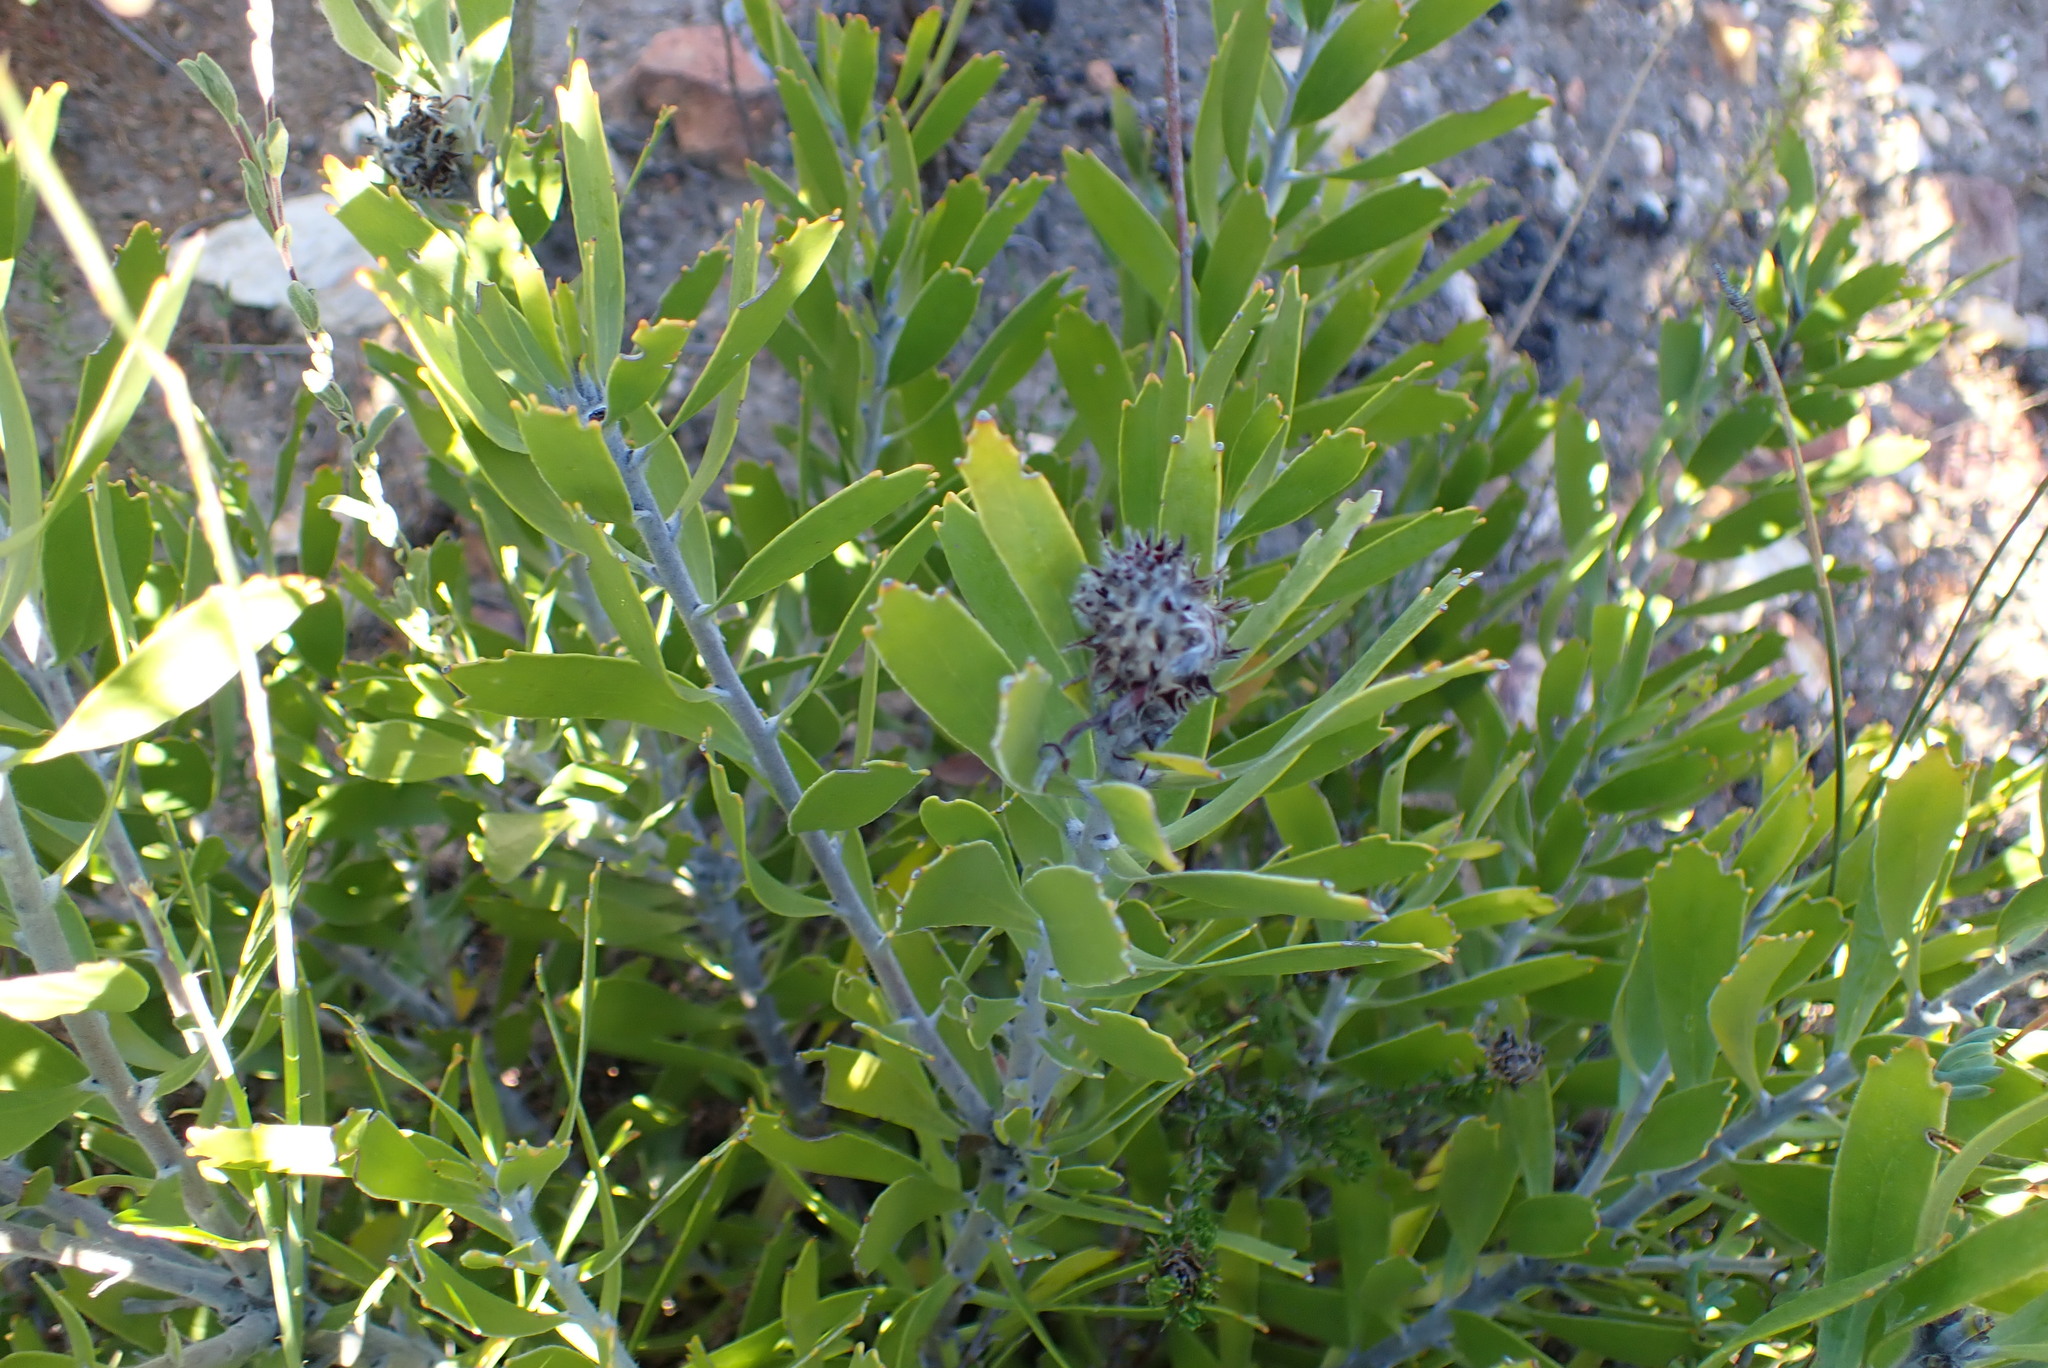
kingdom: Plantae
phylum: Tracheophyta
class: Magnoliopsida
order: Proteales
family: Proteaceae
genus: Leucospermum
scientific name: Leucospermum cuneiforme
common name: Common pincushion
